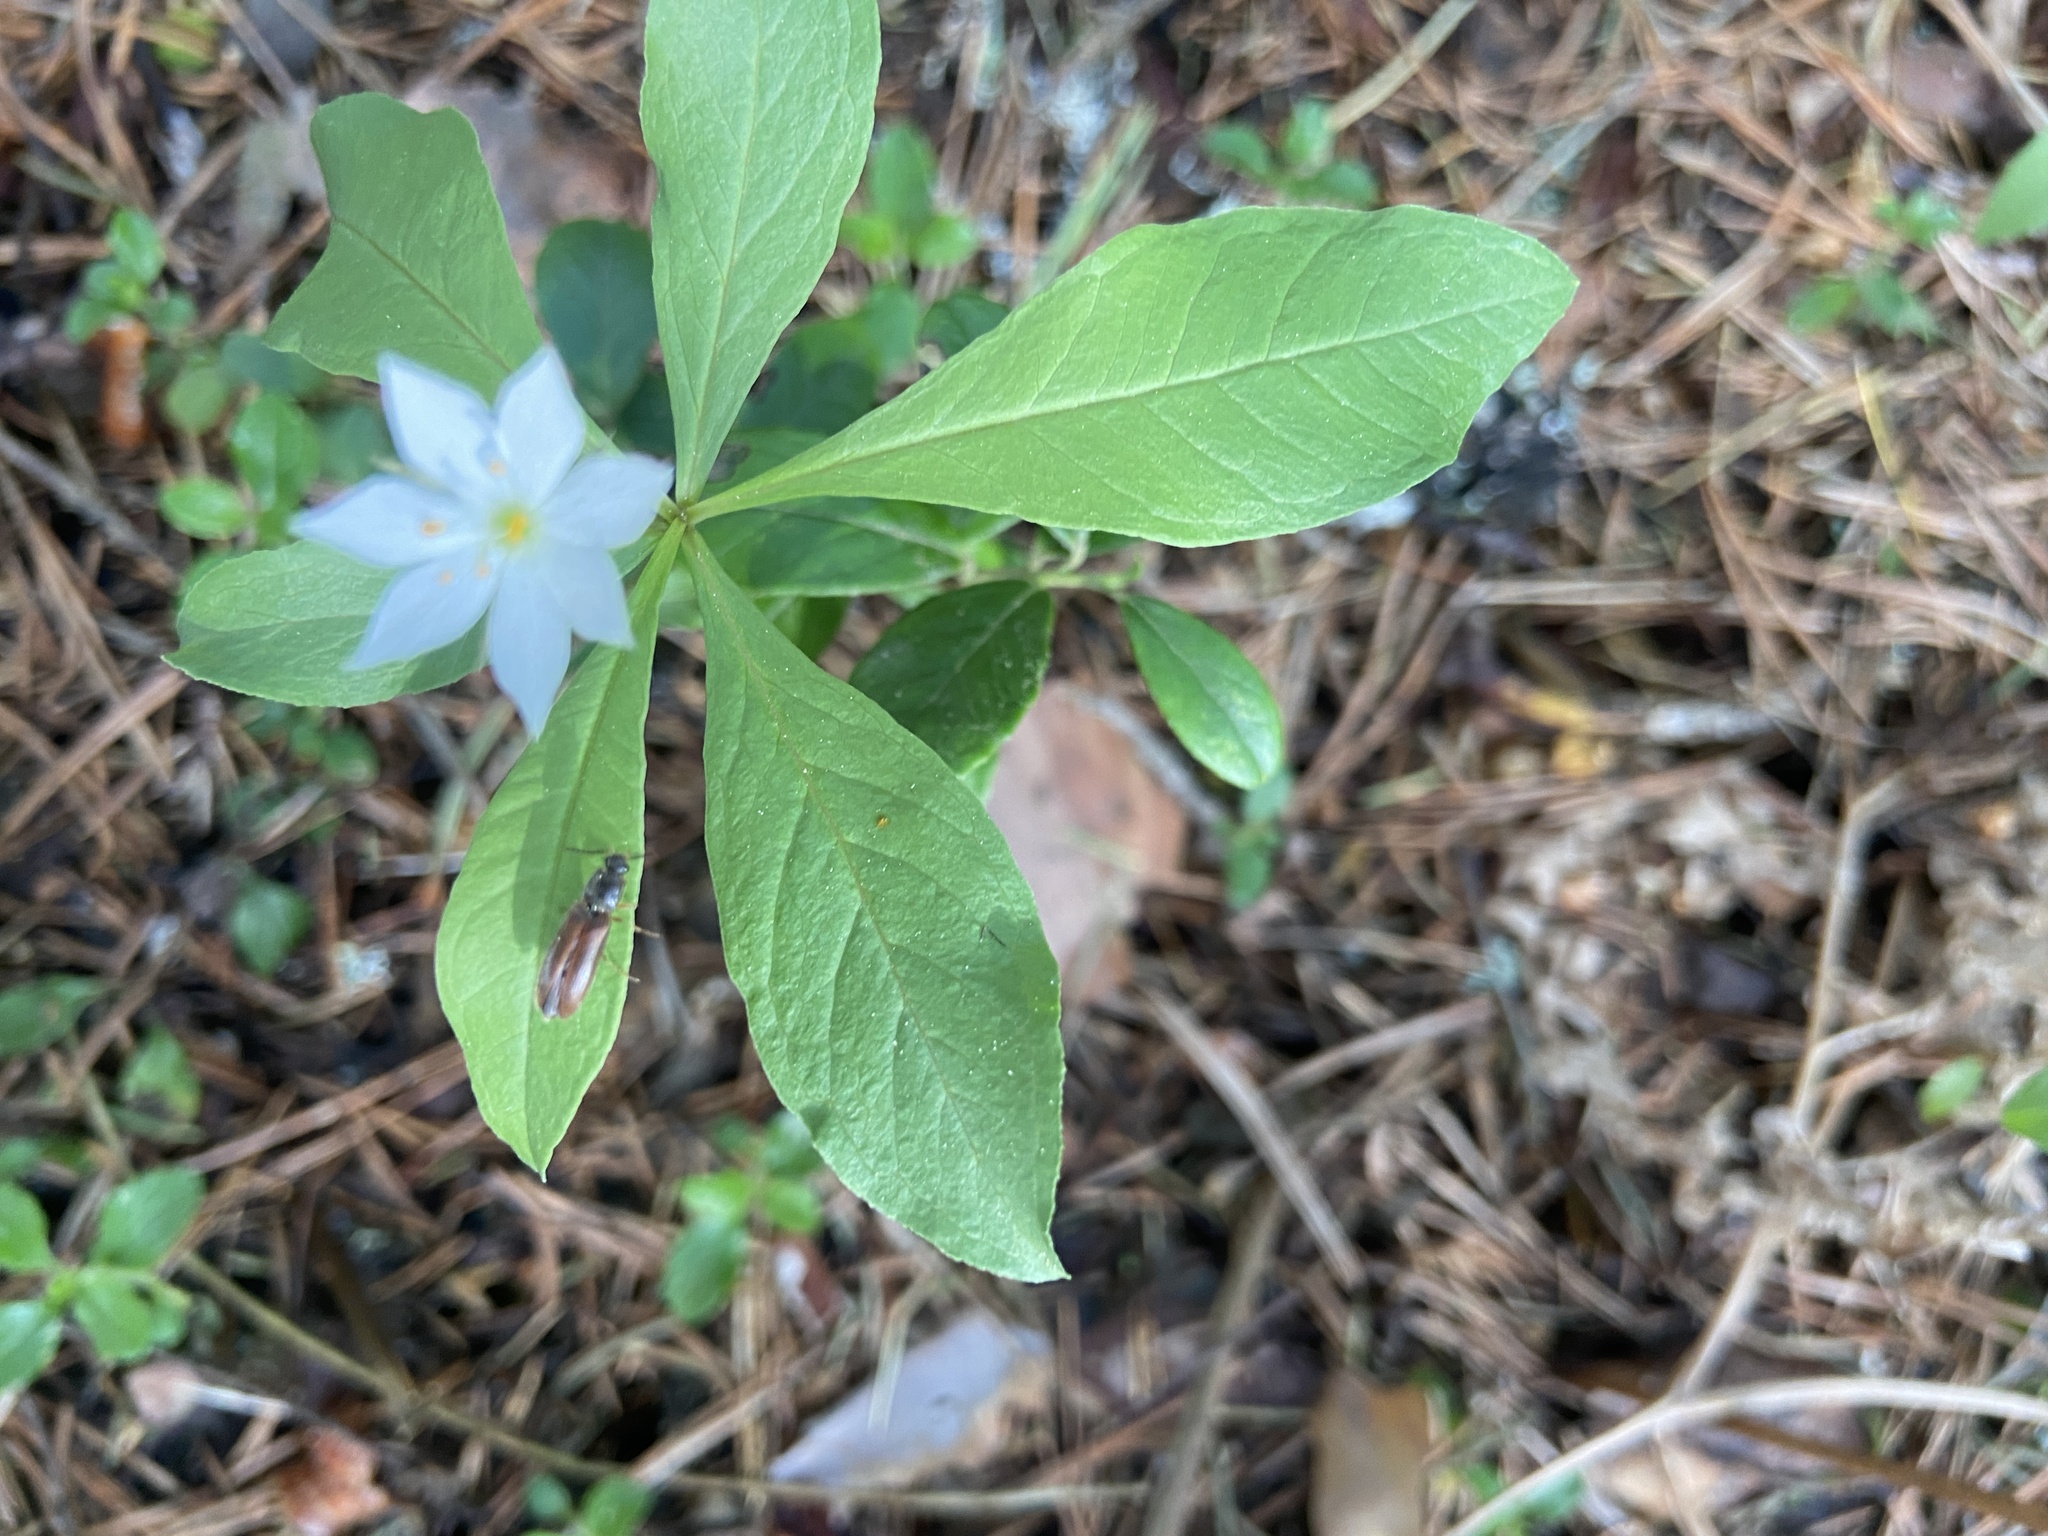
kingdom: Plantae
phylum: Tracheophyta
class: Magnoliopsida
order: Ericales
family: Primulaceae
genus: Lysimachia
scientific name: Lysimachia europaea
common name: Arctic starflower
